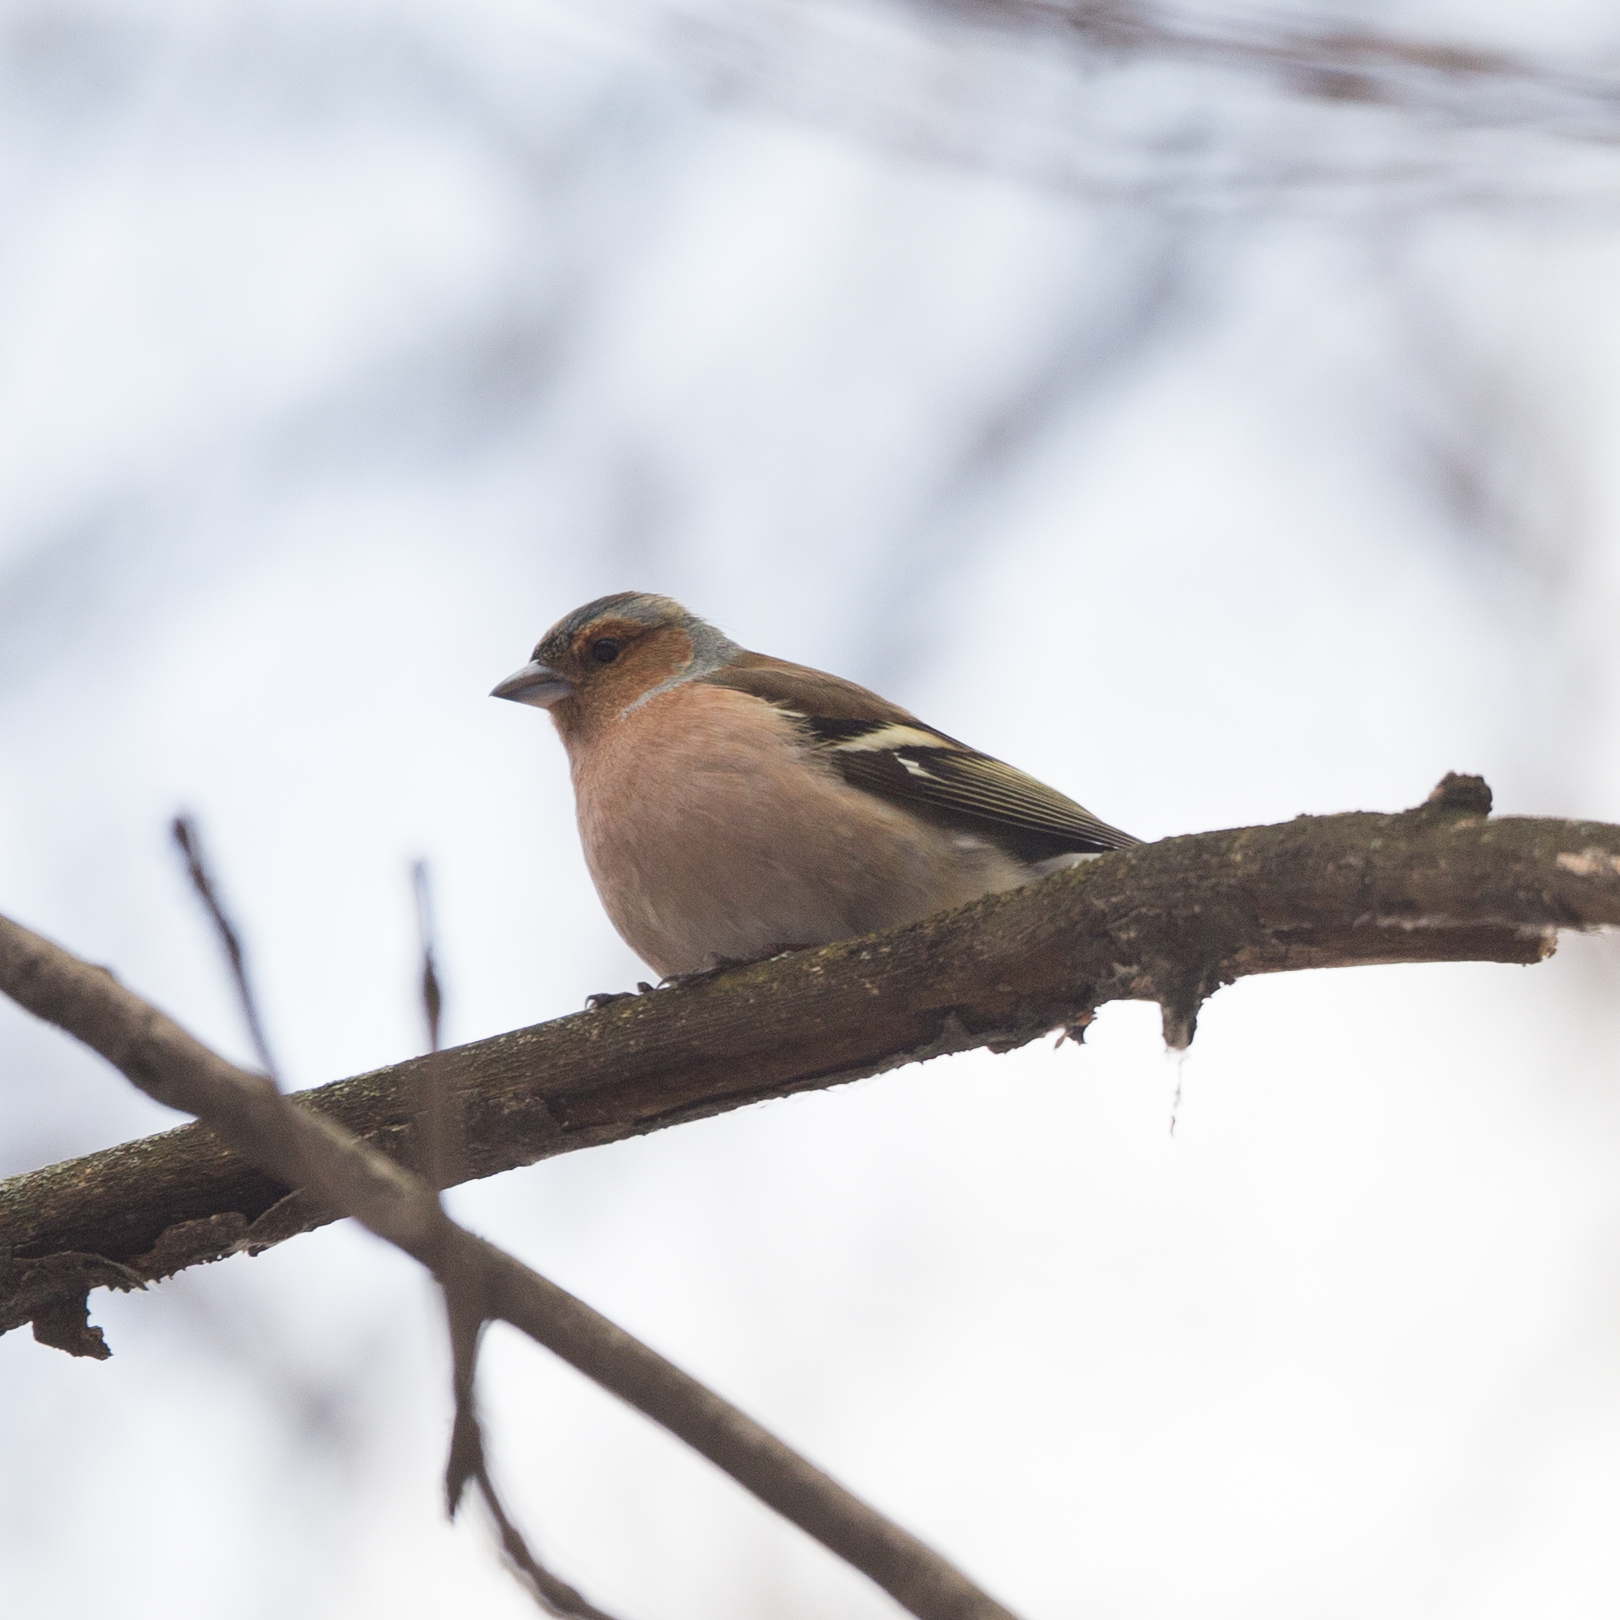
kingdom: Animalia
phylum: Chordata
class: Aves
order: Passeriformes
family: Fringillidae
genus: Fringilla
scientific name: Fringilla coelebs
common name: Common chaffinch
